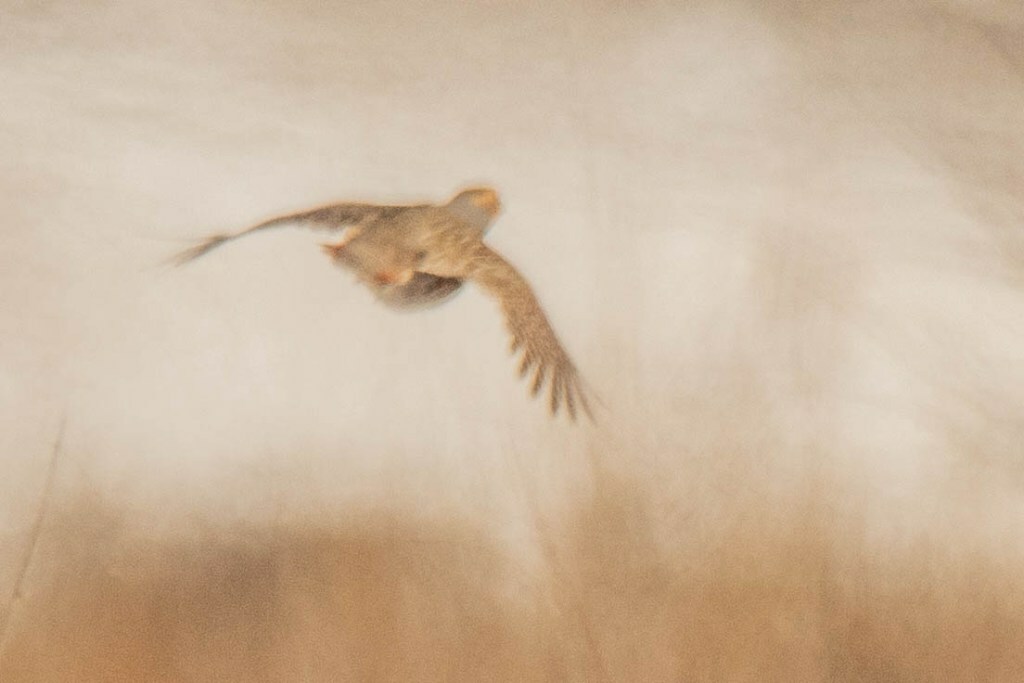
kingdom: Animalia
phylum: Chordata
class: Aves
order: Galliformes
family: Phasianidae
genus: Perdix
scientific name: Perdix dauurica
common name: Daurian partridge
